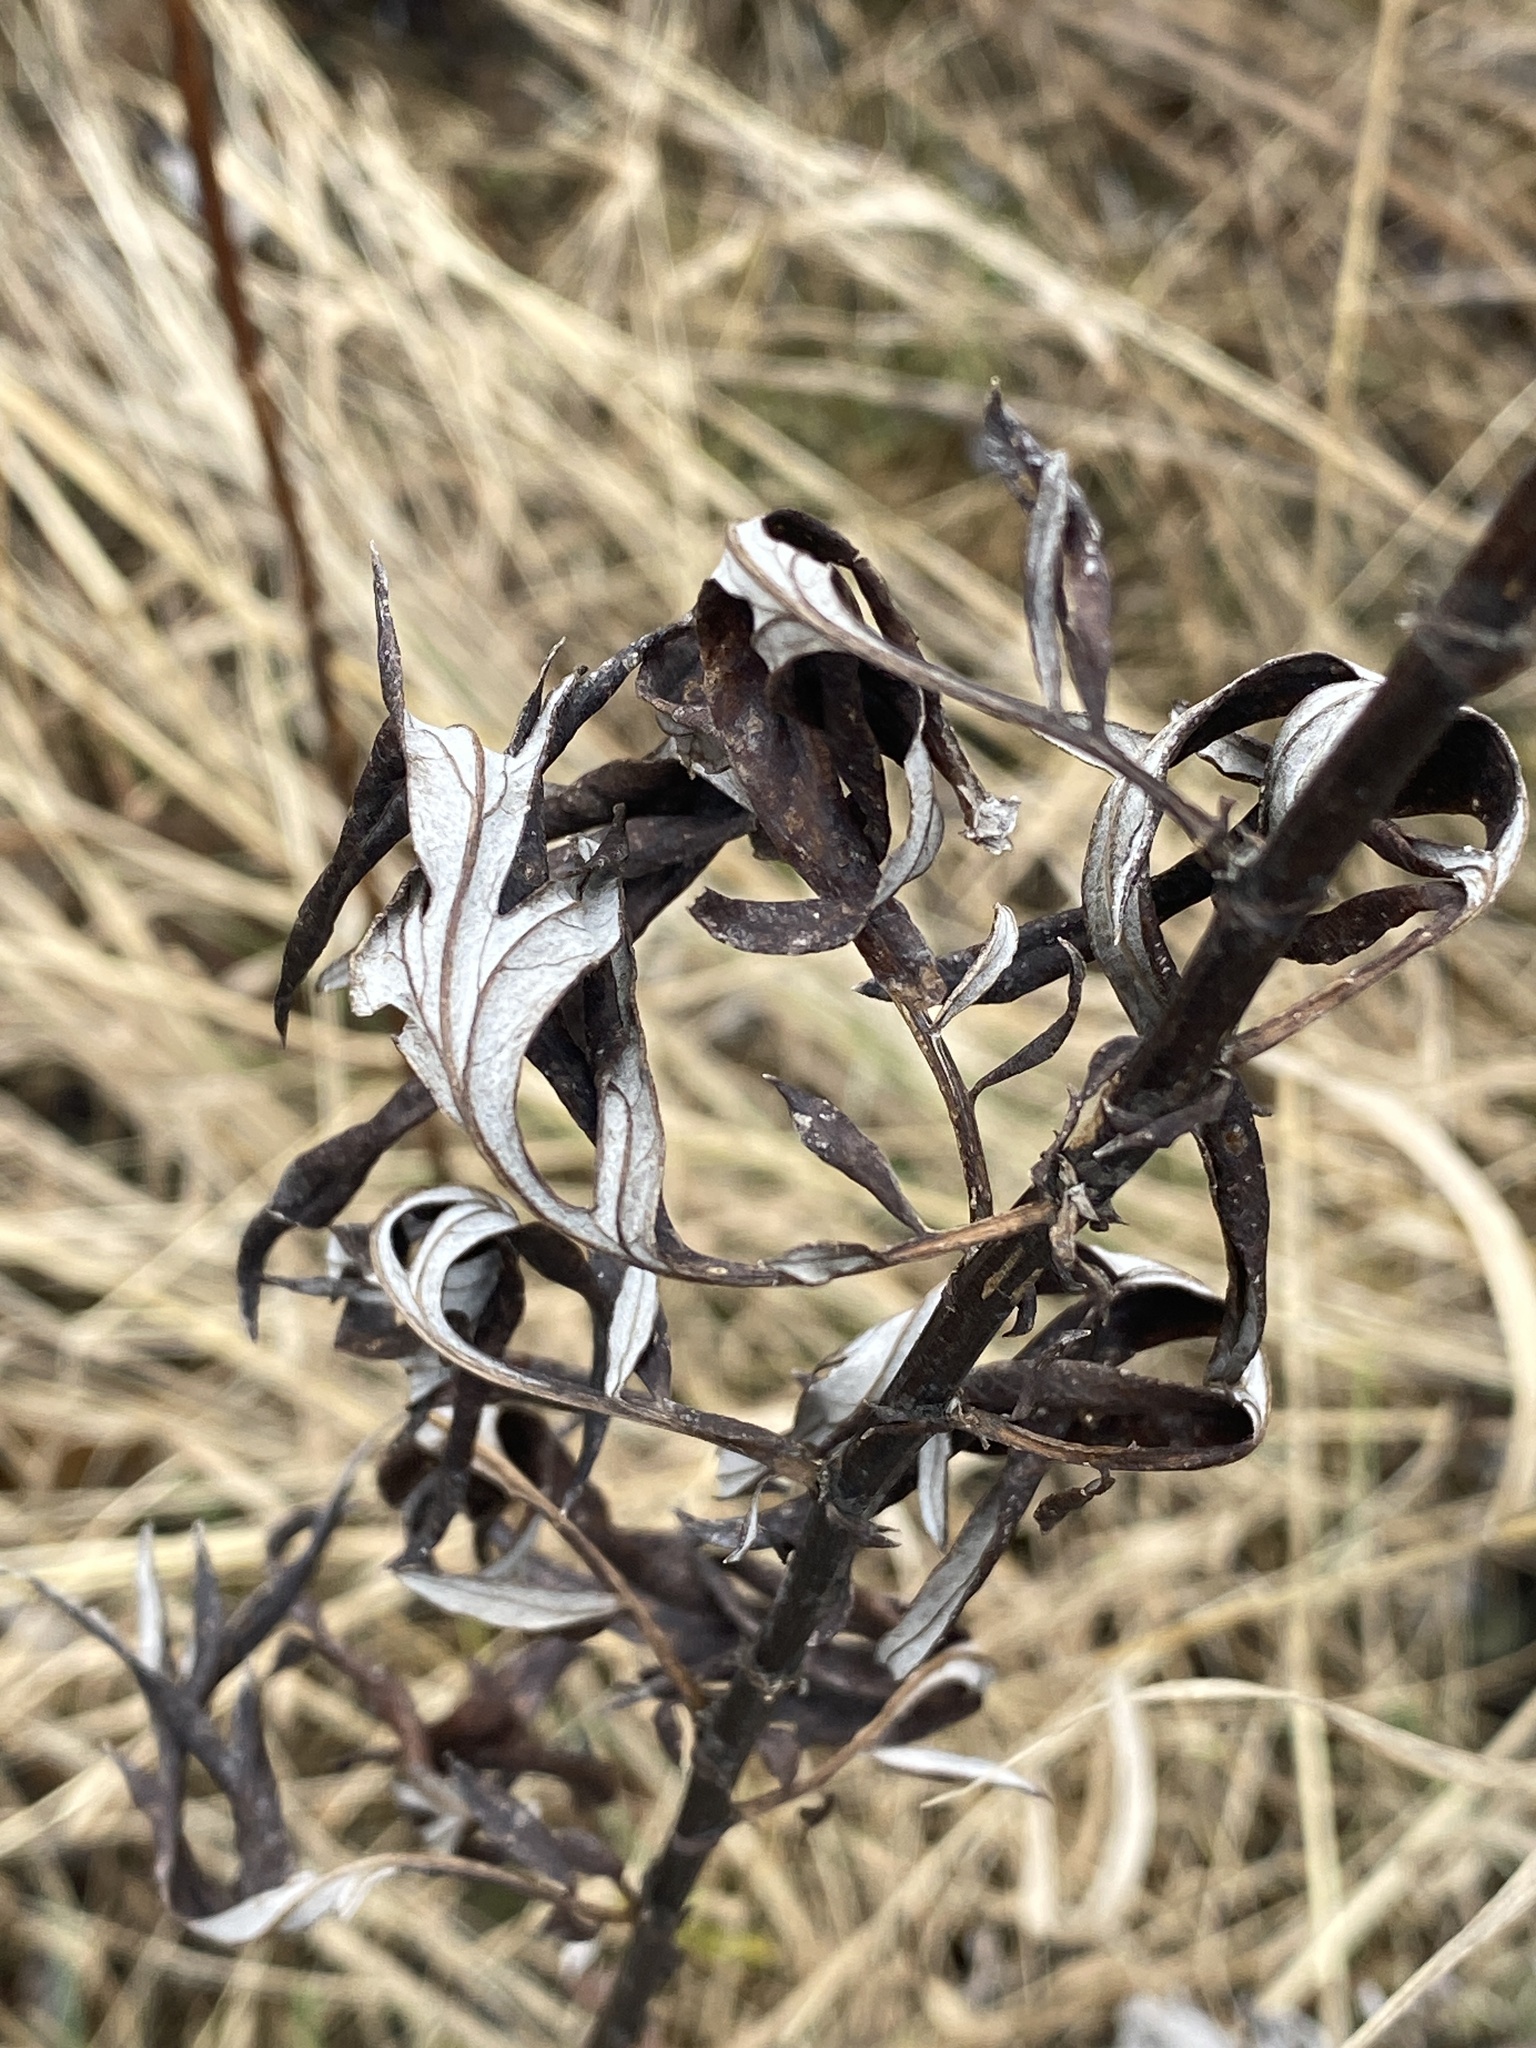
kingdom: Plantae
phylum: Tracheophyta
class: Magnoliopsida
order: Asterales
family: Asteraceae
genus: Artemisia
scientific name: Artemisia vulgaris
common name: Mugwort
